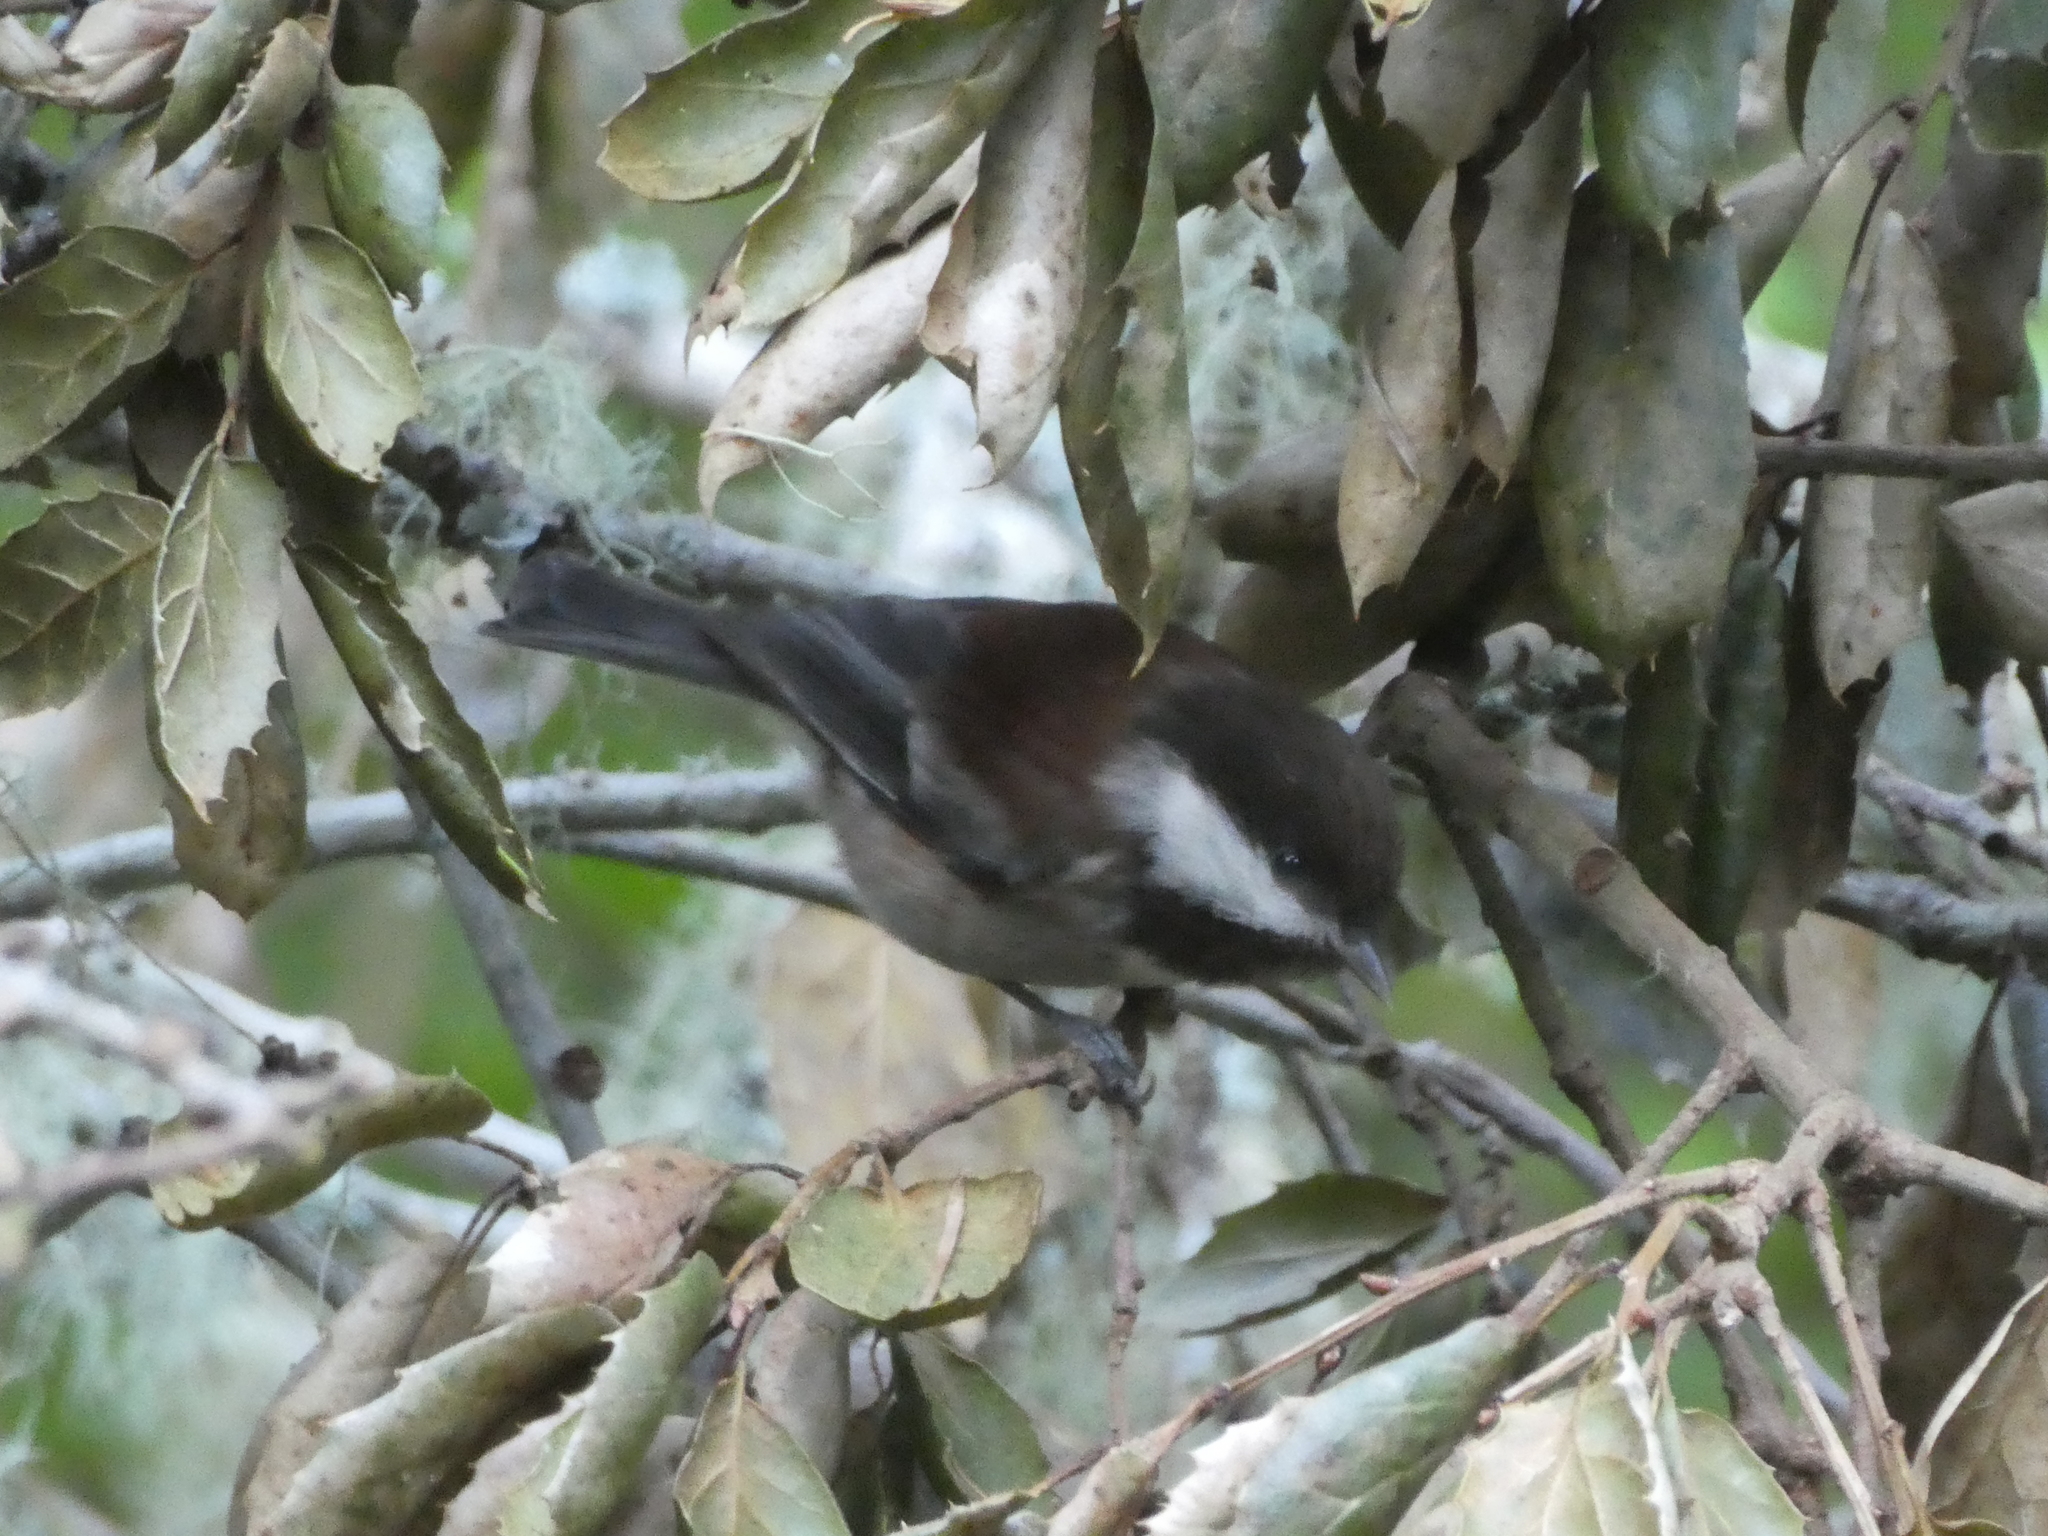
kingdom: Animalia
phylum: Chordata
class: Aves
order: Passeriformes
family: Paridae
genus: Poecile
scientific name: Poecile rufescens
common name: Chestnut-backed chickadee
